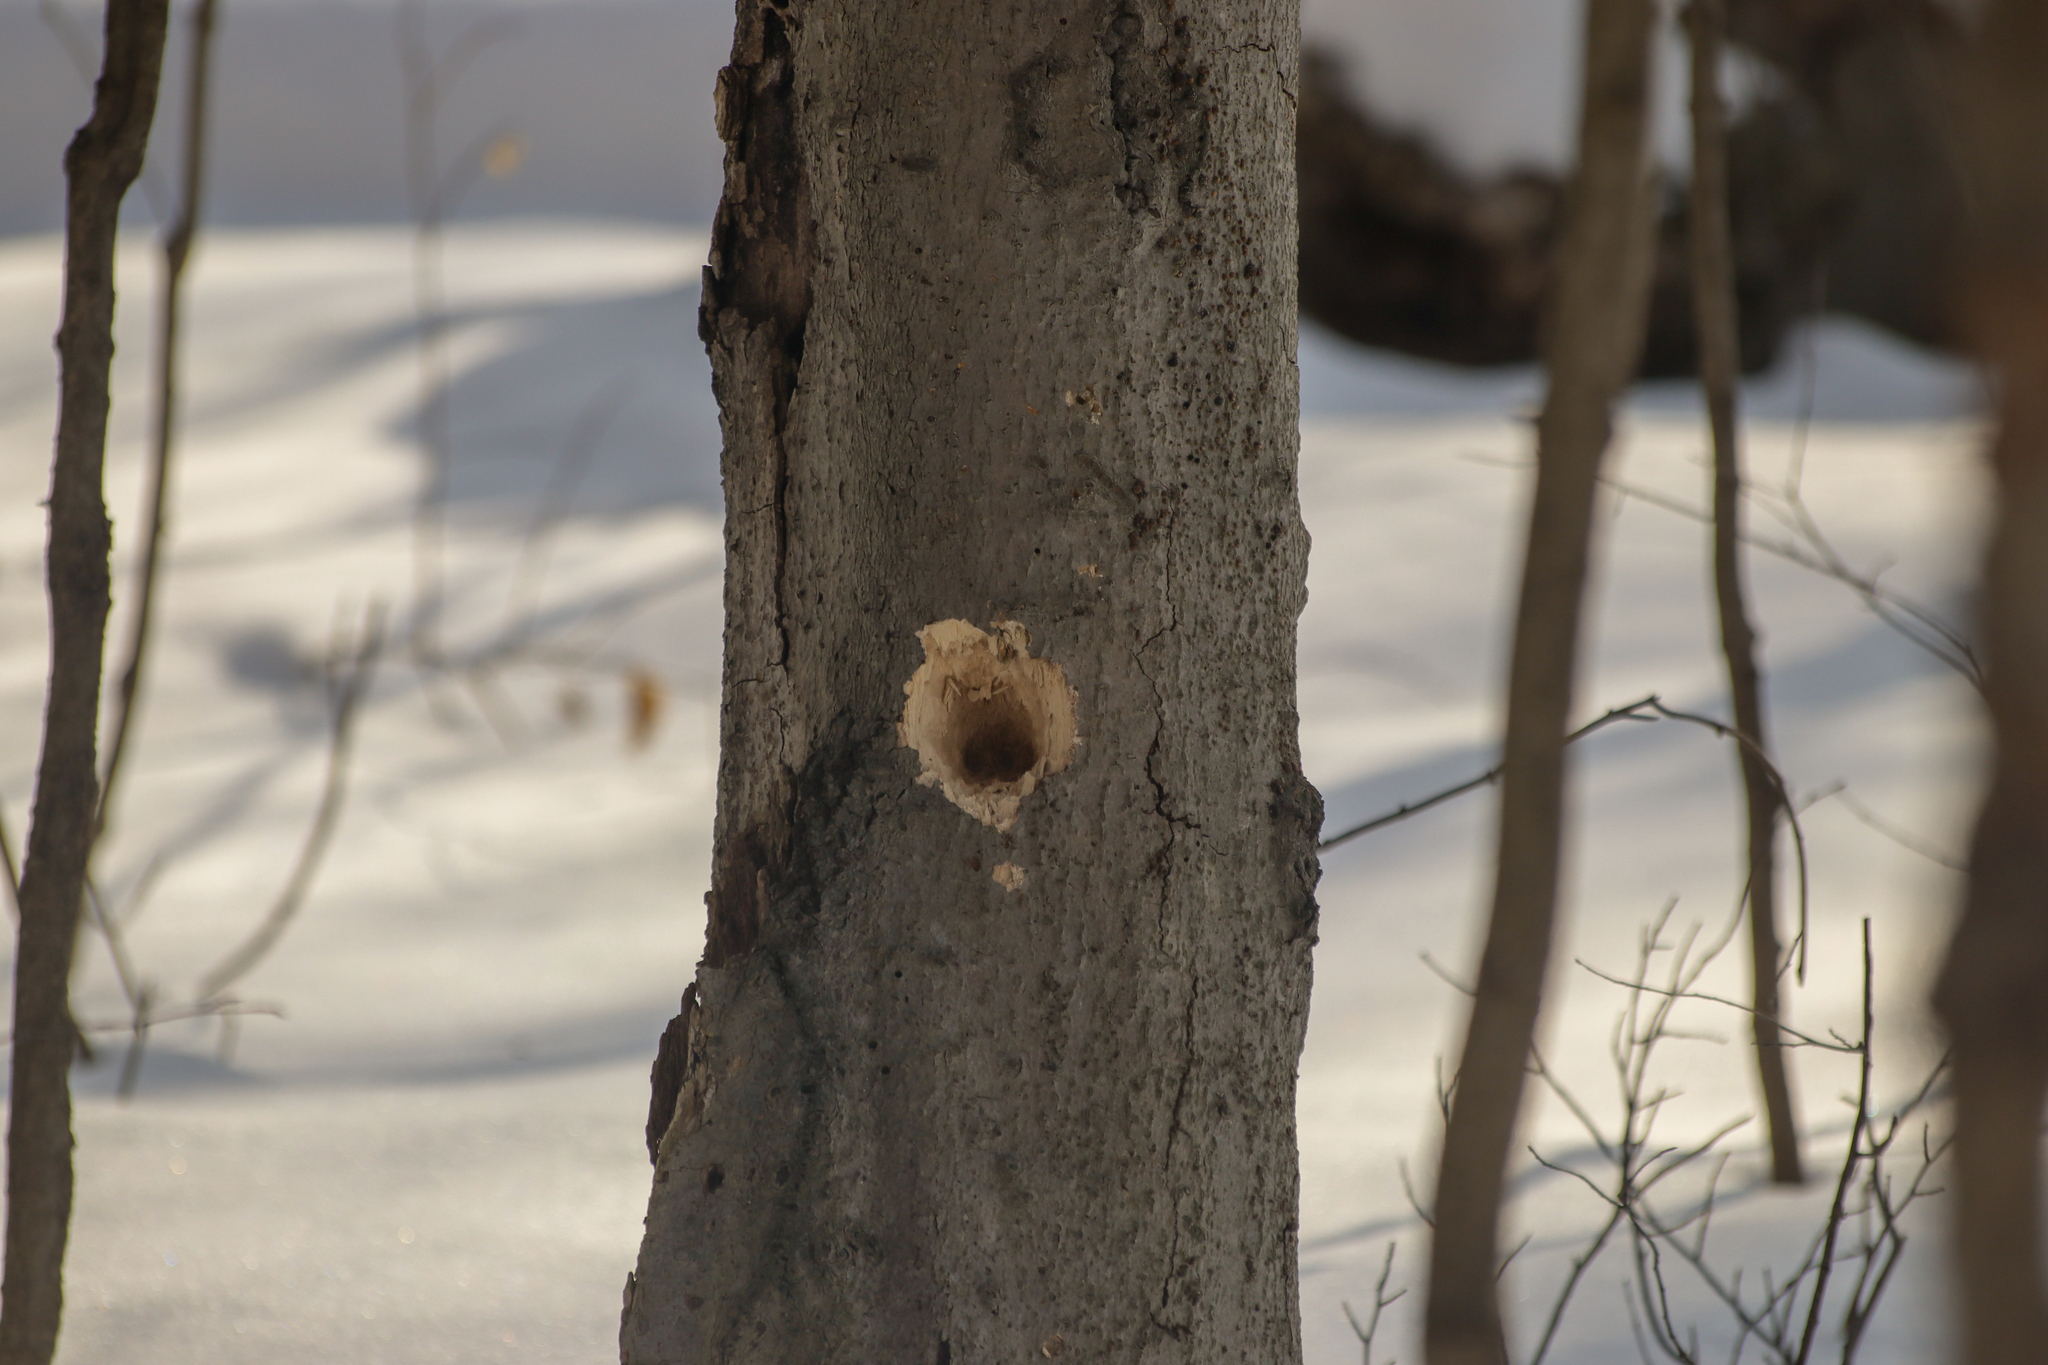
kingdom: Animalia
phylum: Chordata
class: Aves
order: Piciformes
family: Picidae
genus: Dryocopus
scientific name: Dryocopus pileatus
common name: Pileated woodpecker
